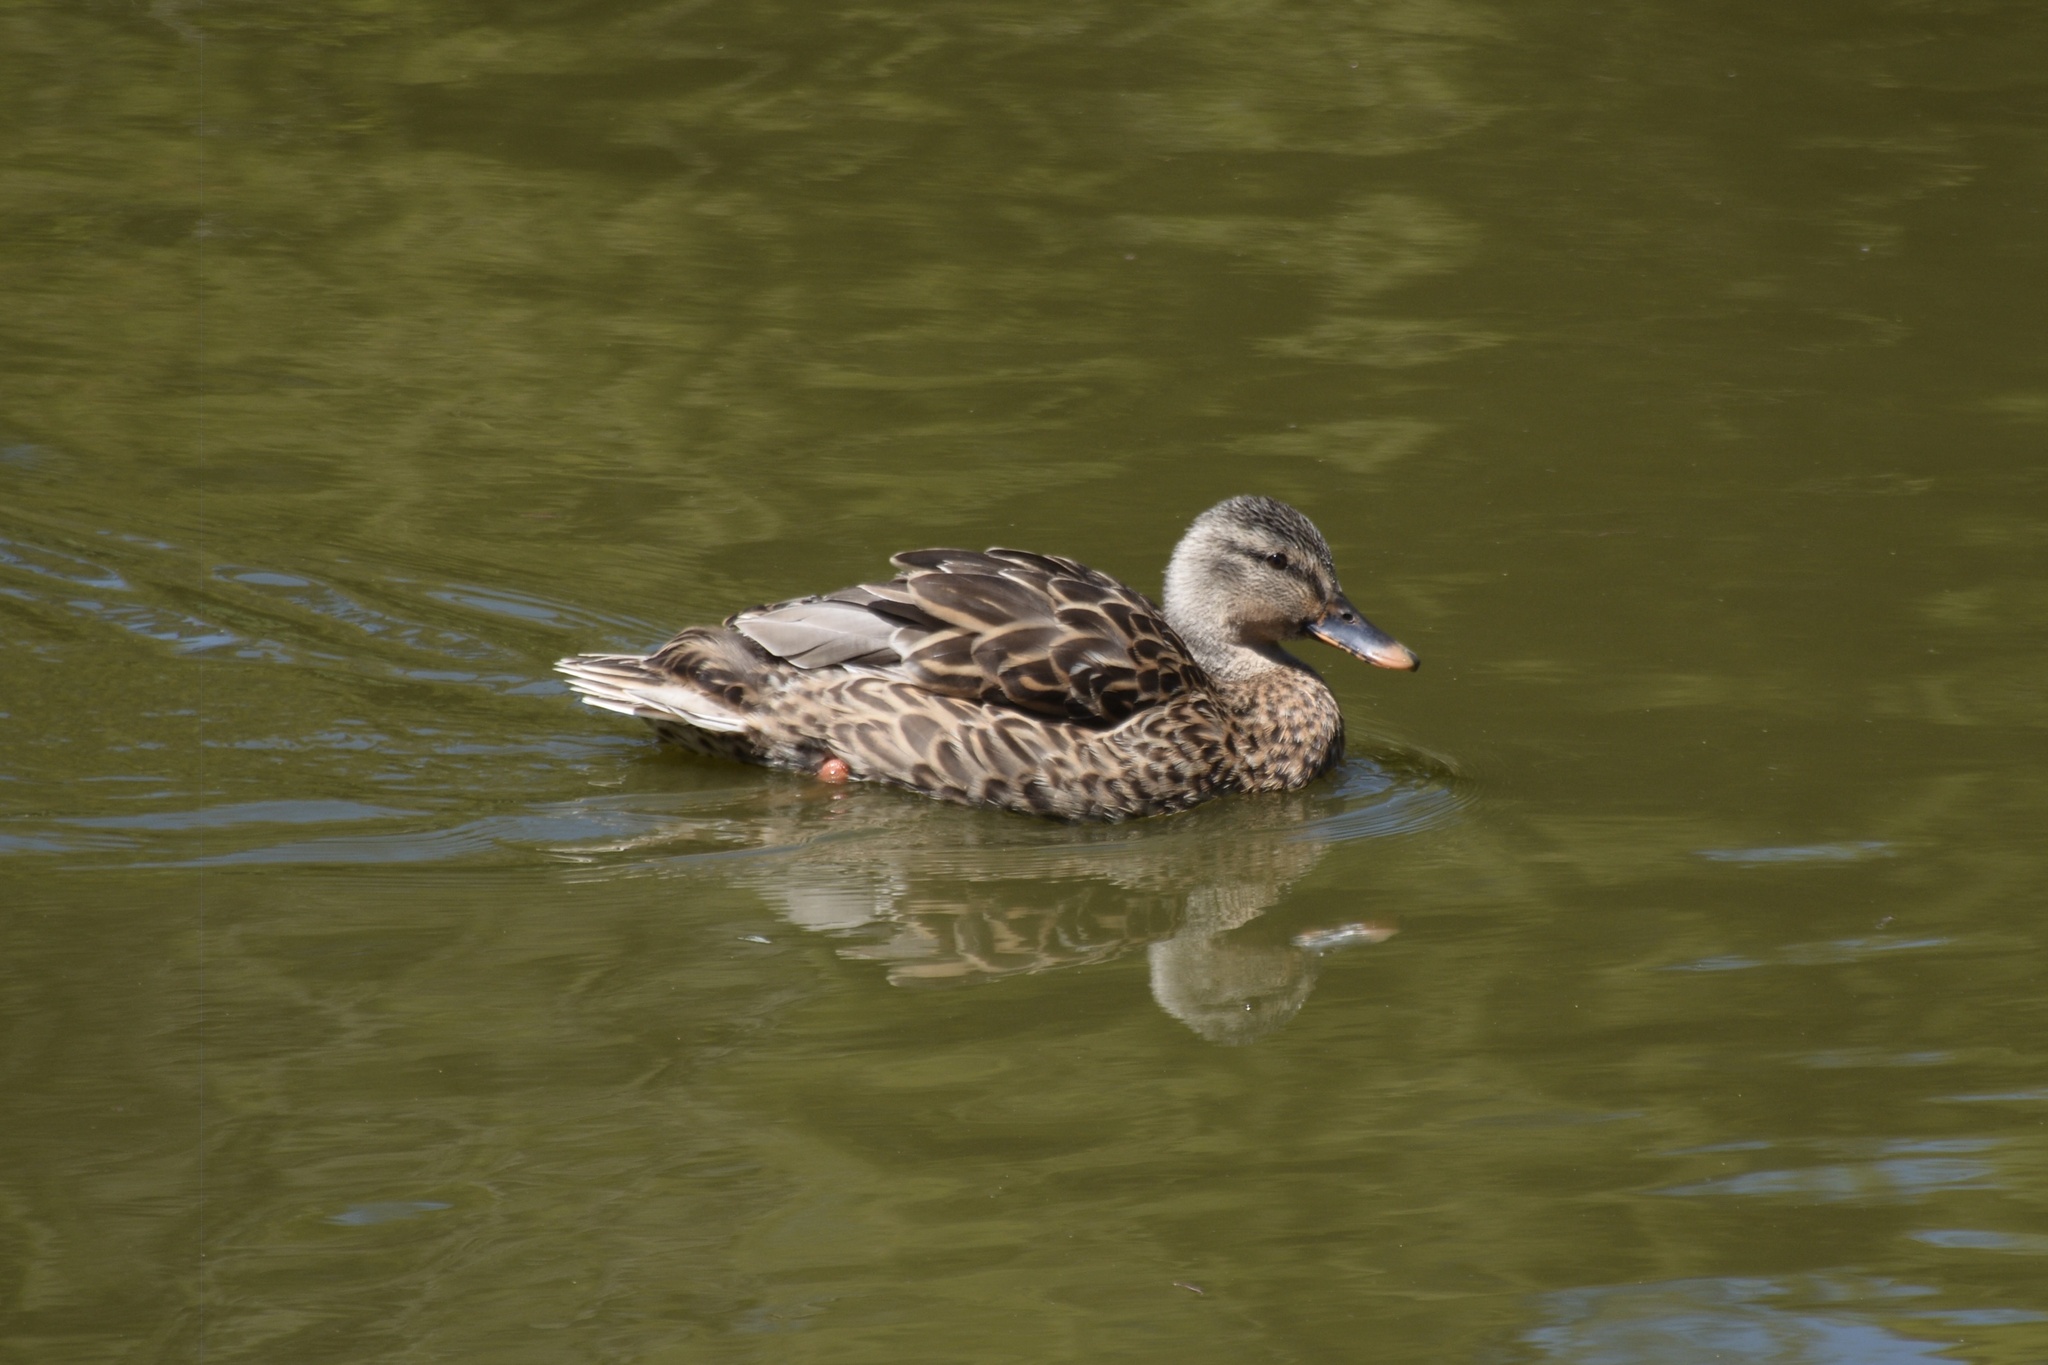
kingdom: Animalia
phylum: Chordata
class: Aves
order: Anseriformes
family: Anatidae
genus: Anas
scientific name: Anas platyrhynchos
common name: Mallard
